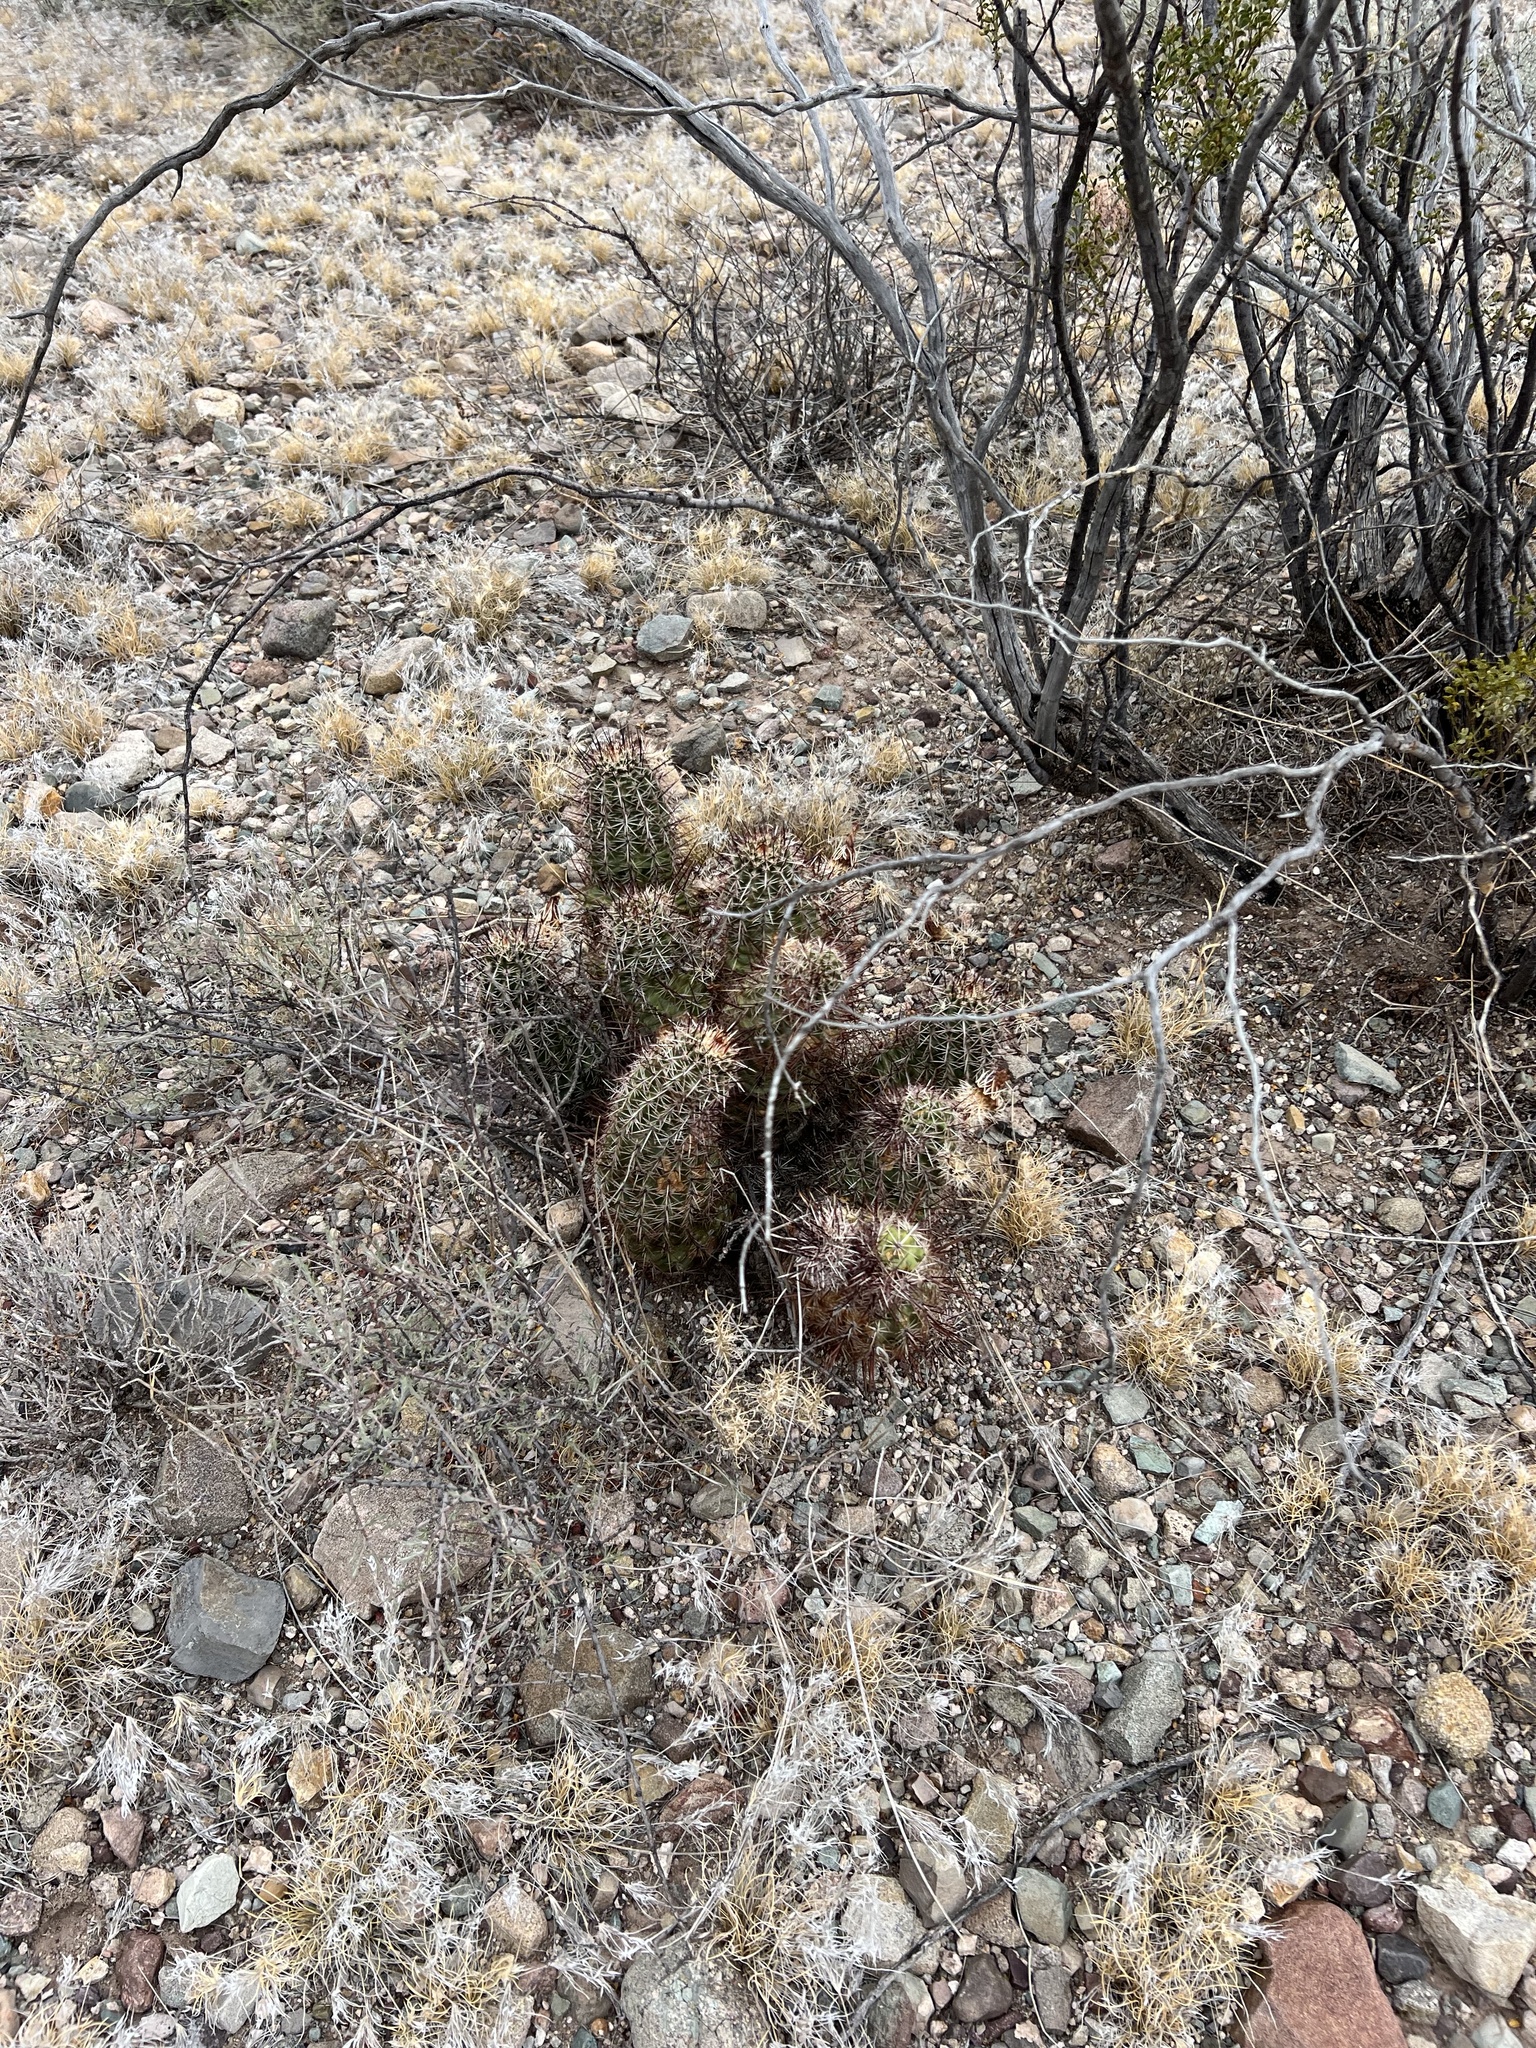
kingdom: Plantae
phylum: Tracheophyta
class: Magnoliopsida
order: Caryophyllales
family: Cactaceae
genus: Echinocereus
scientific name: Echinocereus fasciculatus
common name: Bundle hedgehog
